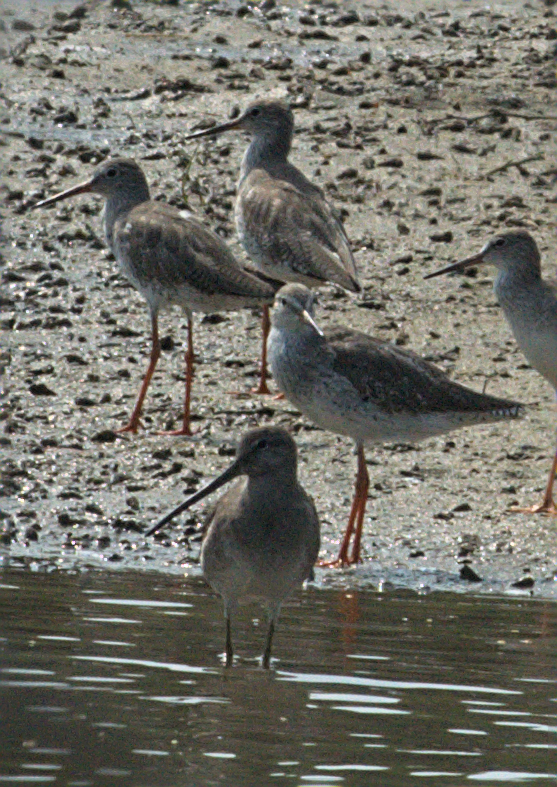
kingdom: Animalia
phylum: Chordata
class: Aves
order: Charadriiformes
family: Scolopacidae
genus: Limnodromus
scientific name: Limnodromus scolopaceus
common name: Long-billed dowitcher
